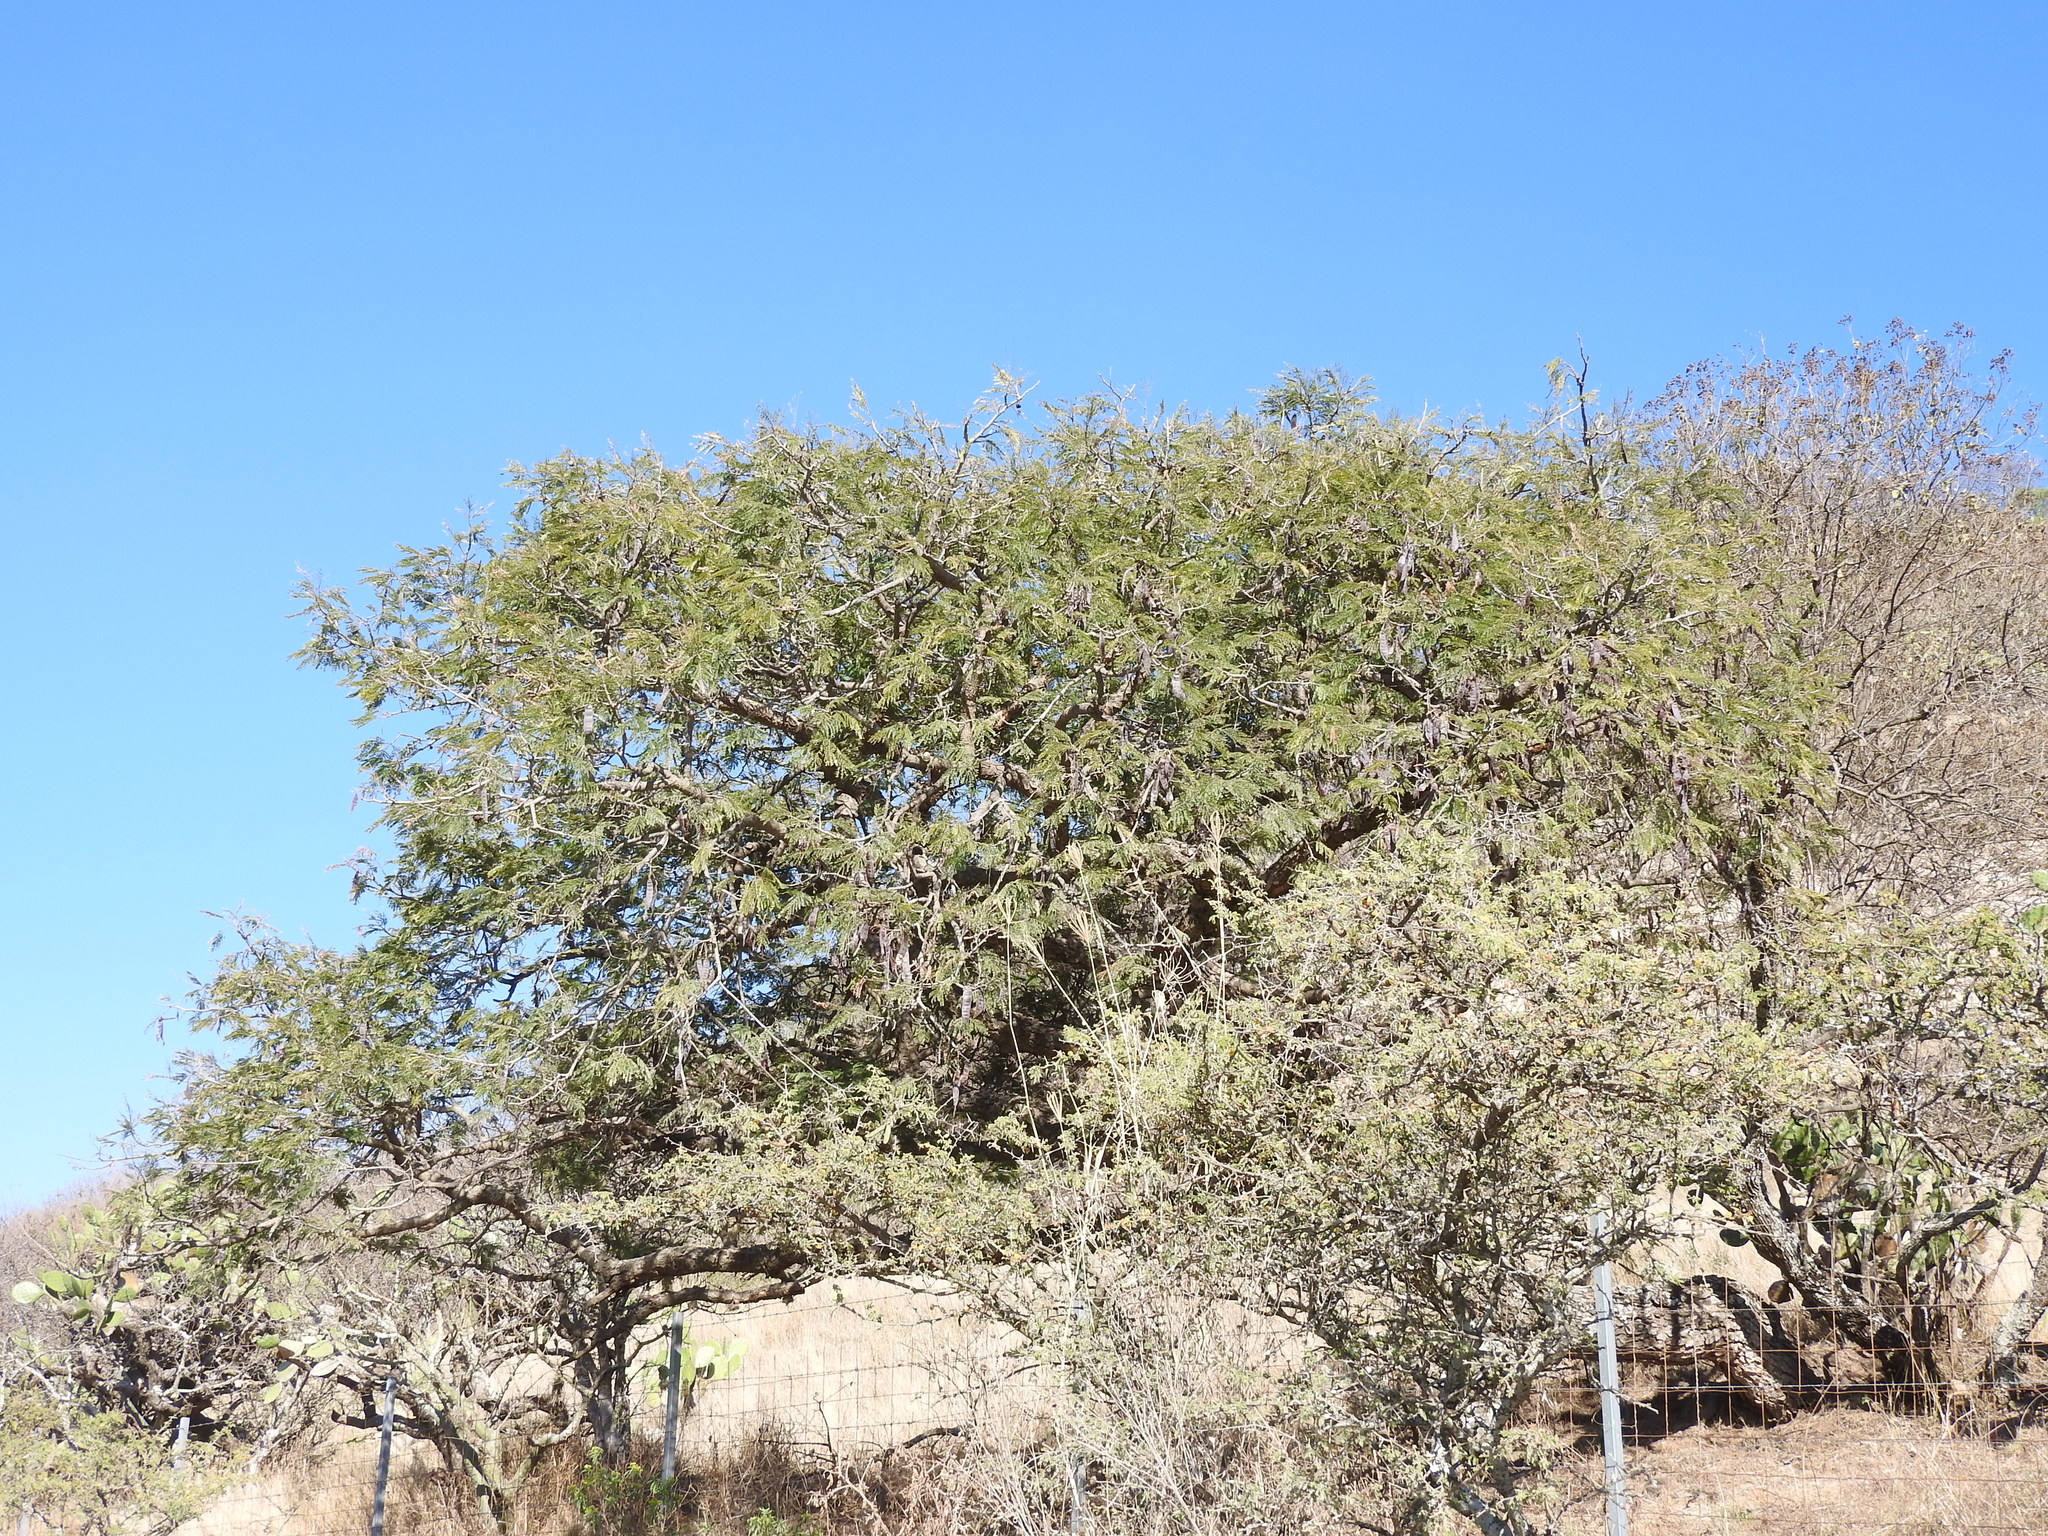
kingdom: Plantae
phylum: Tracheophyta
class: Magnoliopsida
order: Fabales
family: Fabaceae
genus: Vachellia
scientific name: Vachellia pennatula
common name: Fern-leaf acacia
